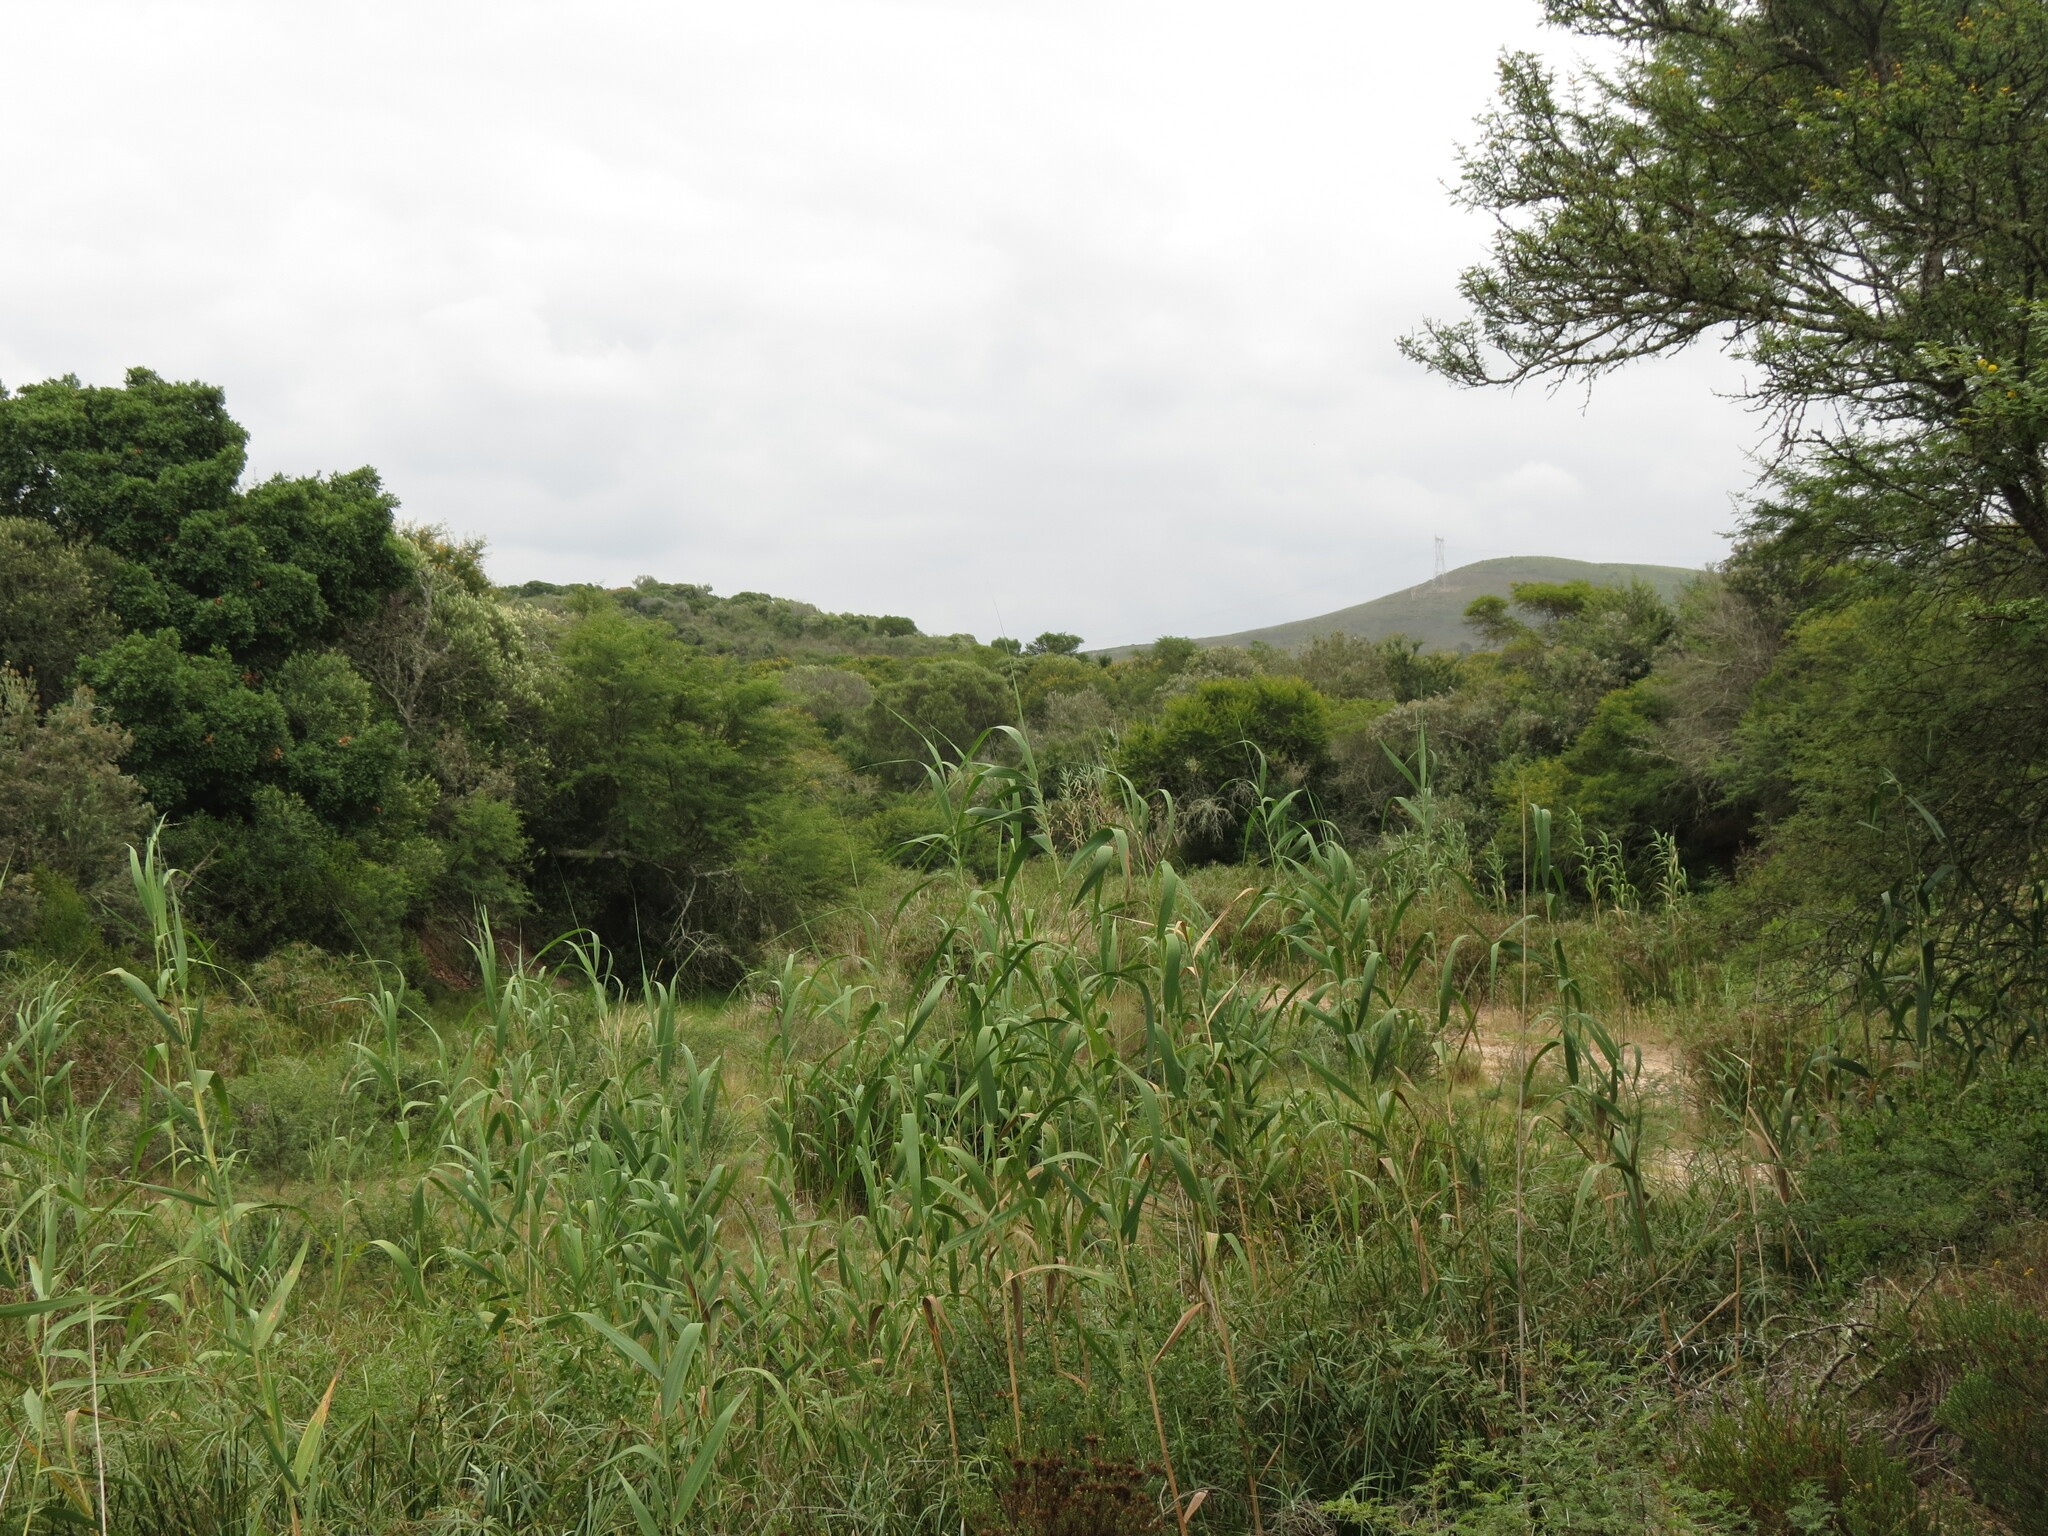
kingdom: Plantae
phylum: Tracheophyta
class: Liliopsida
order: Poales
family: Poaceae
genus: Phragmites
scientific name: Phragmites australis
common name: Common reed
